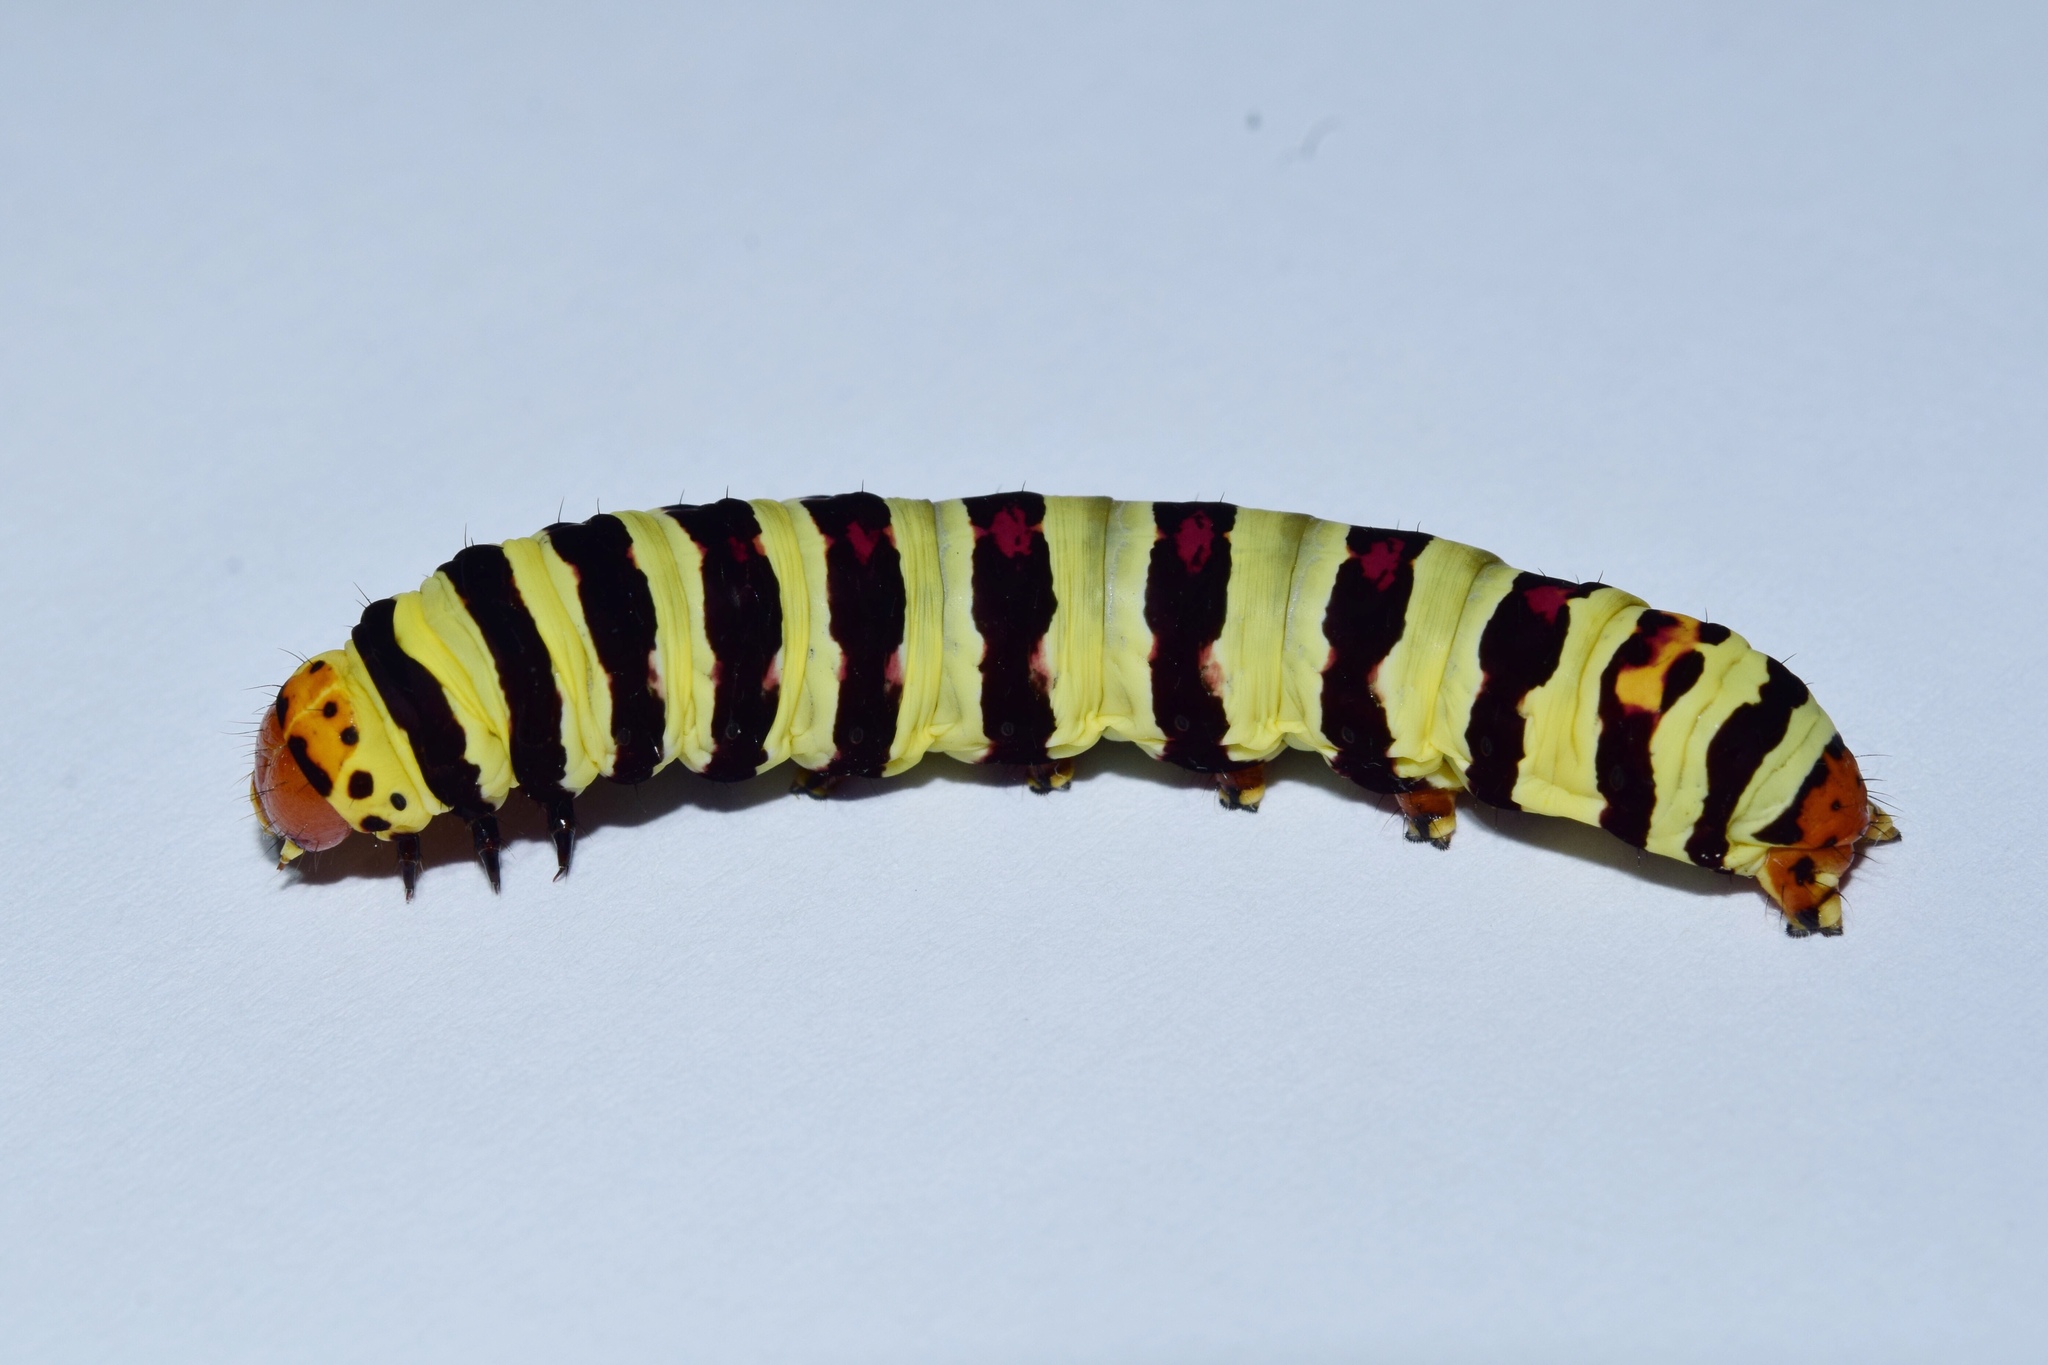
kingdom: Animalia
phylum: Arthropoda
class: Insecta
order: Lepidoptera
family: Noctuidae
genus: Diaphone
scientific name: Diaphone eumela
